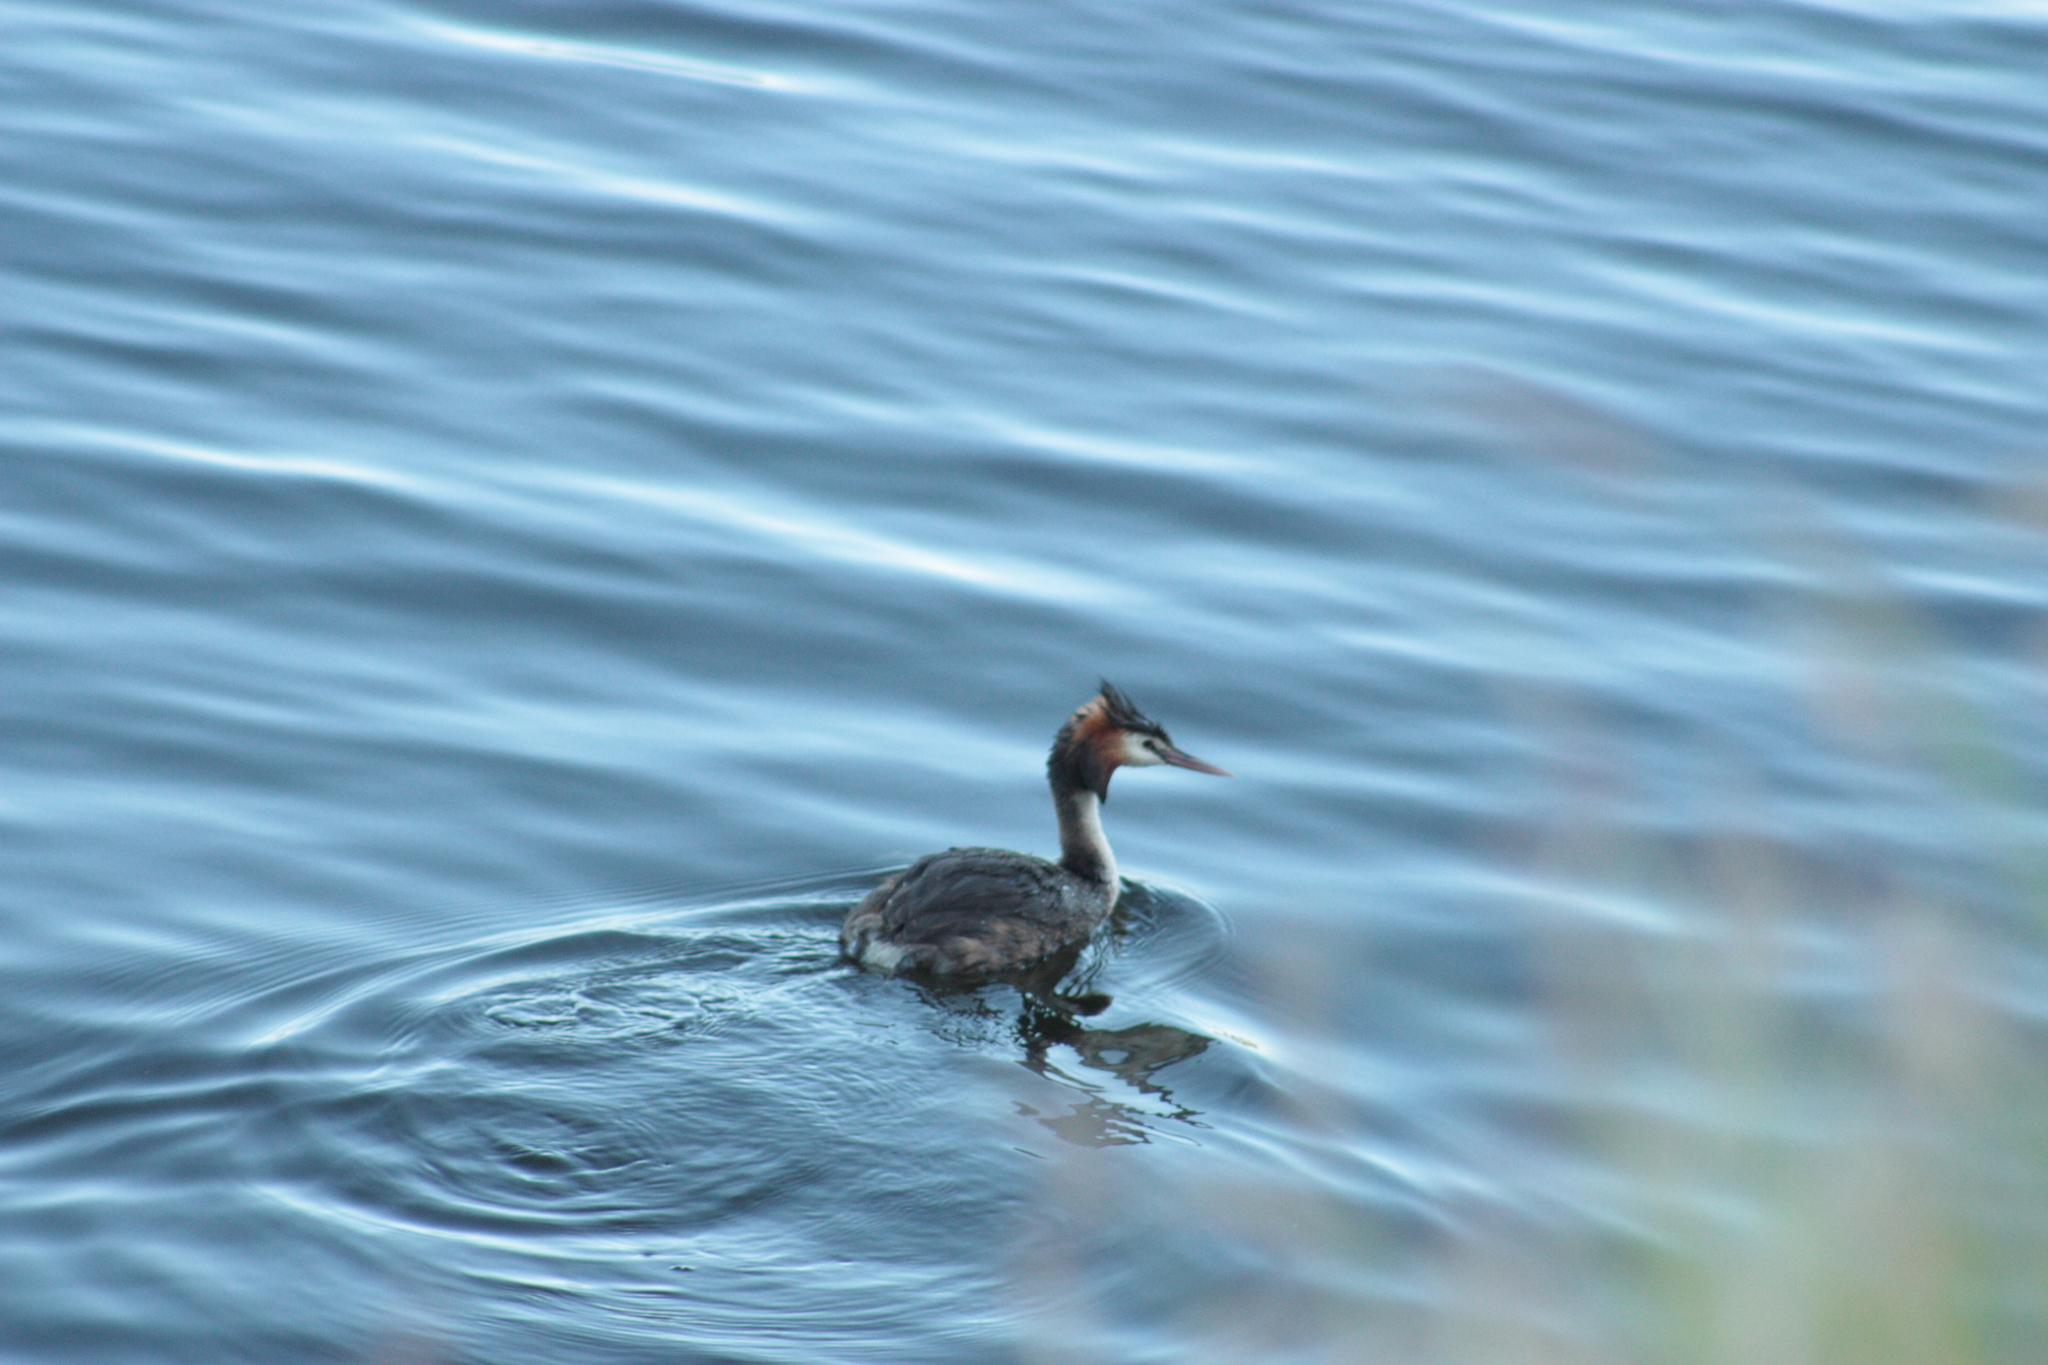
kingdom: Animalia
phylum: Chordata
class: Aves
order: Podicipediformes
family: Podicipedidae
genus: Podiceps
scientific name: Podiceps cristatus
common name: Great crested grebe
